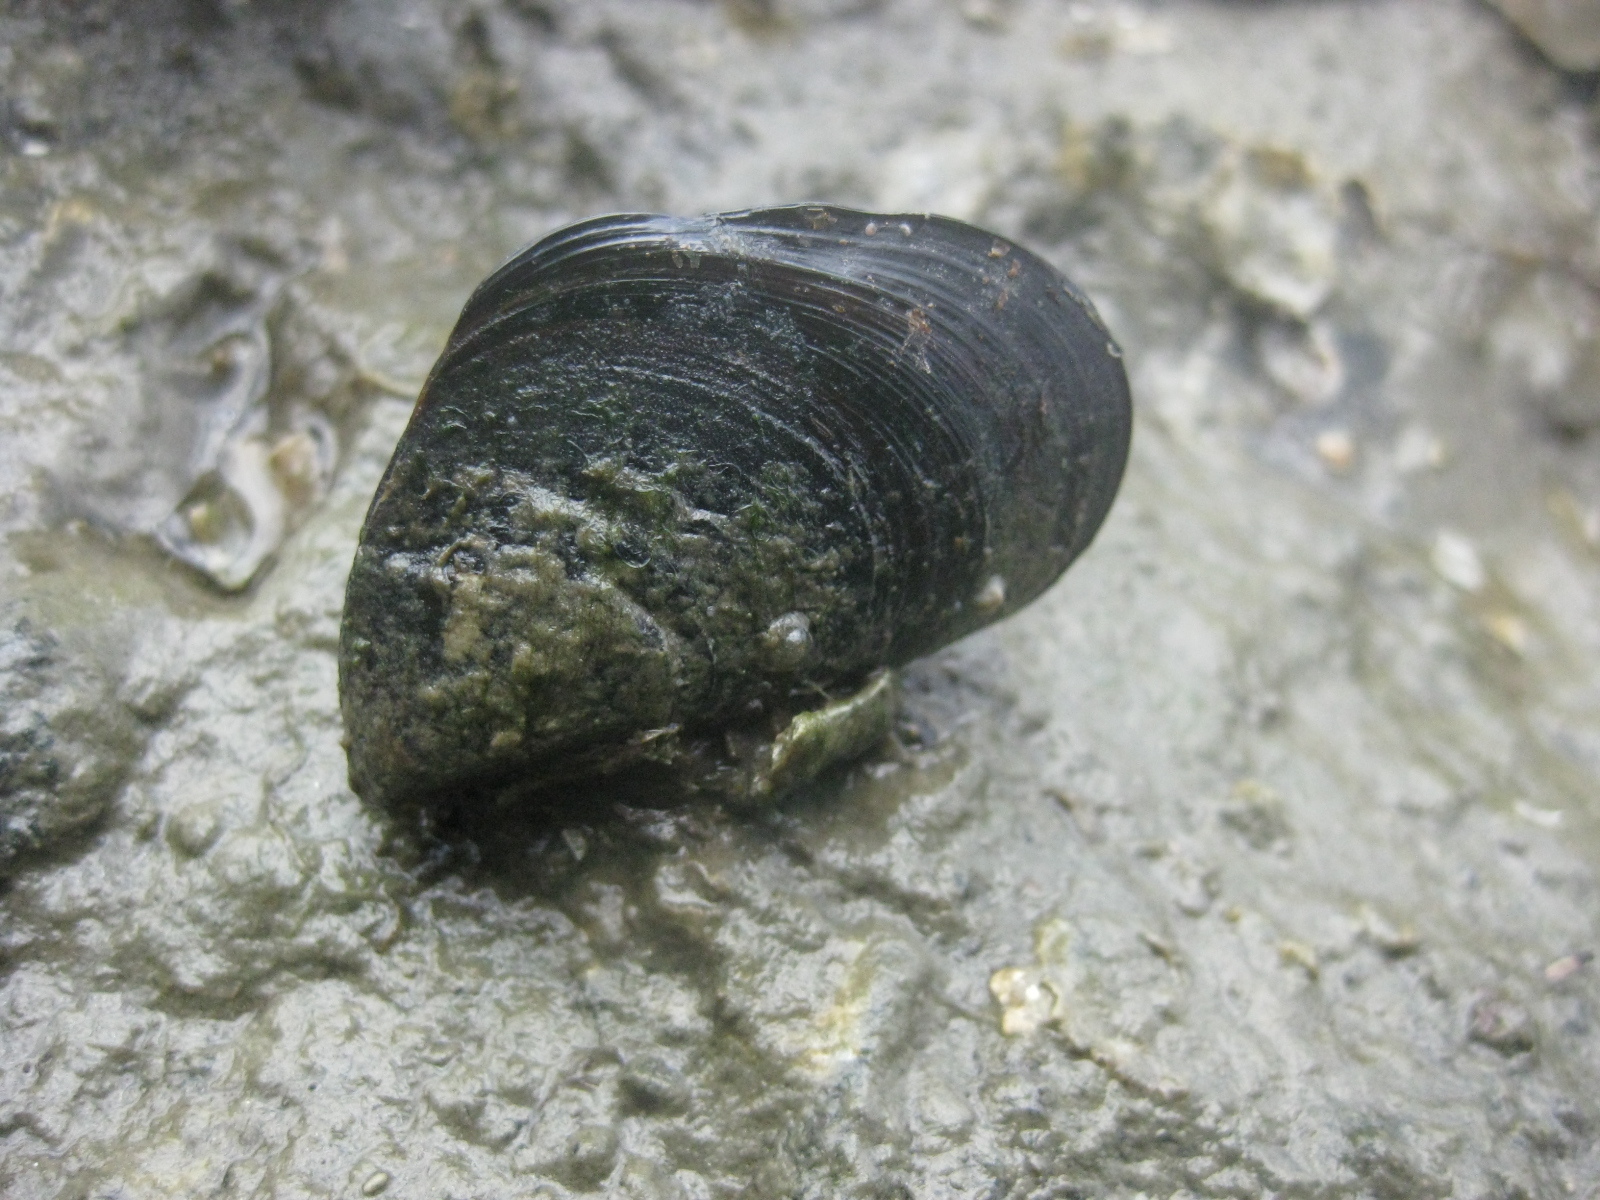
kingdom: Animalia
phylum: Mollusca
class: Bivalvia
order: Mytilida
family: Mytilidae
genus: Perna
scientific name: Perna canaliculus
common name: New zealand greenshelltm
